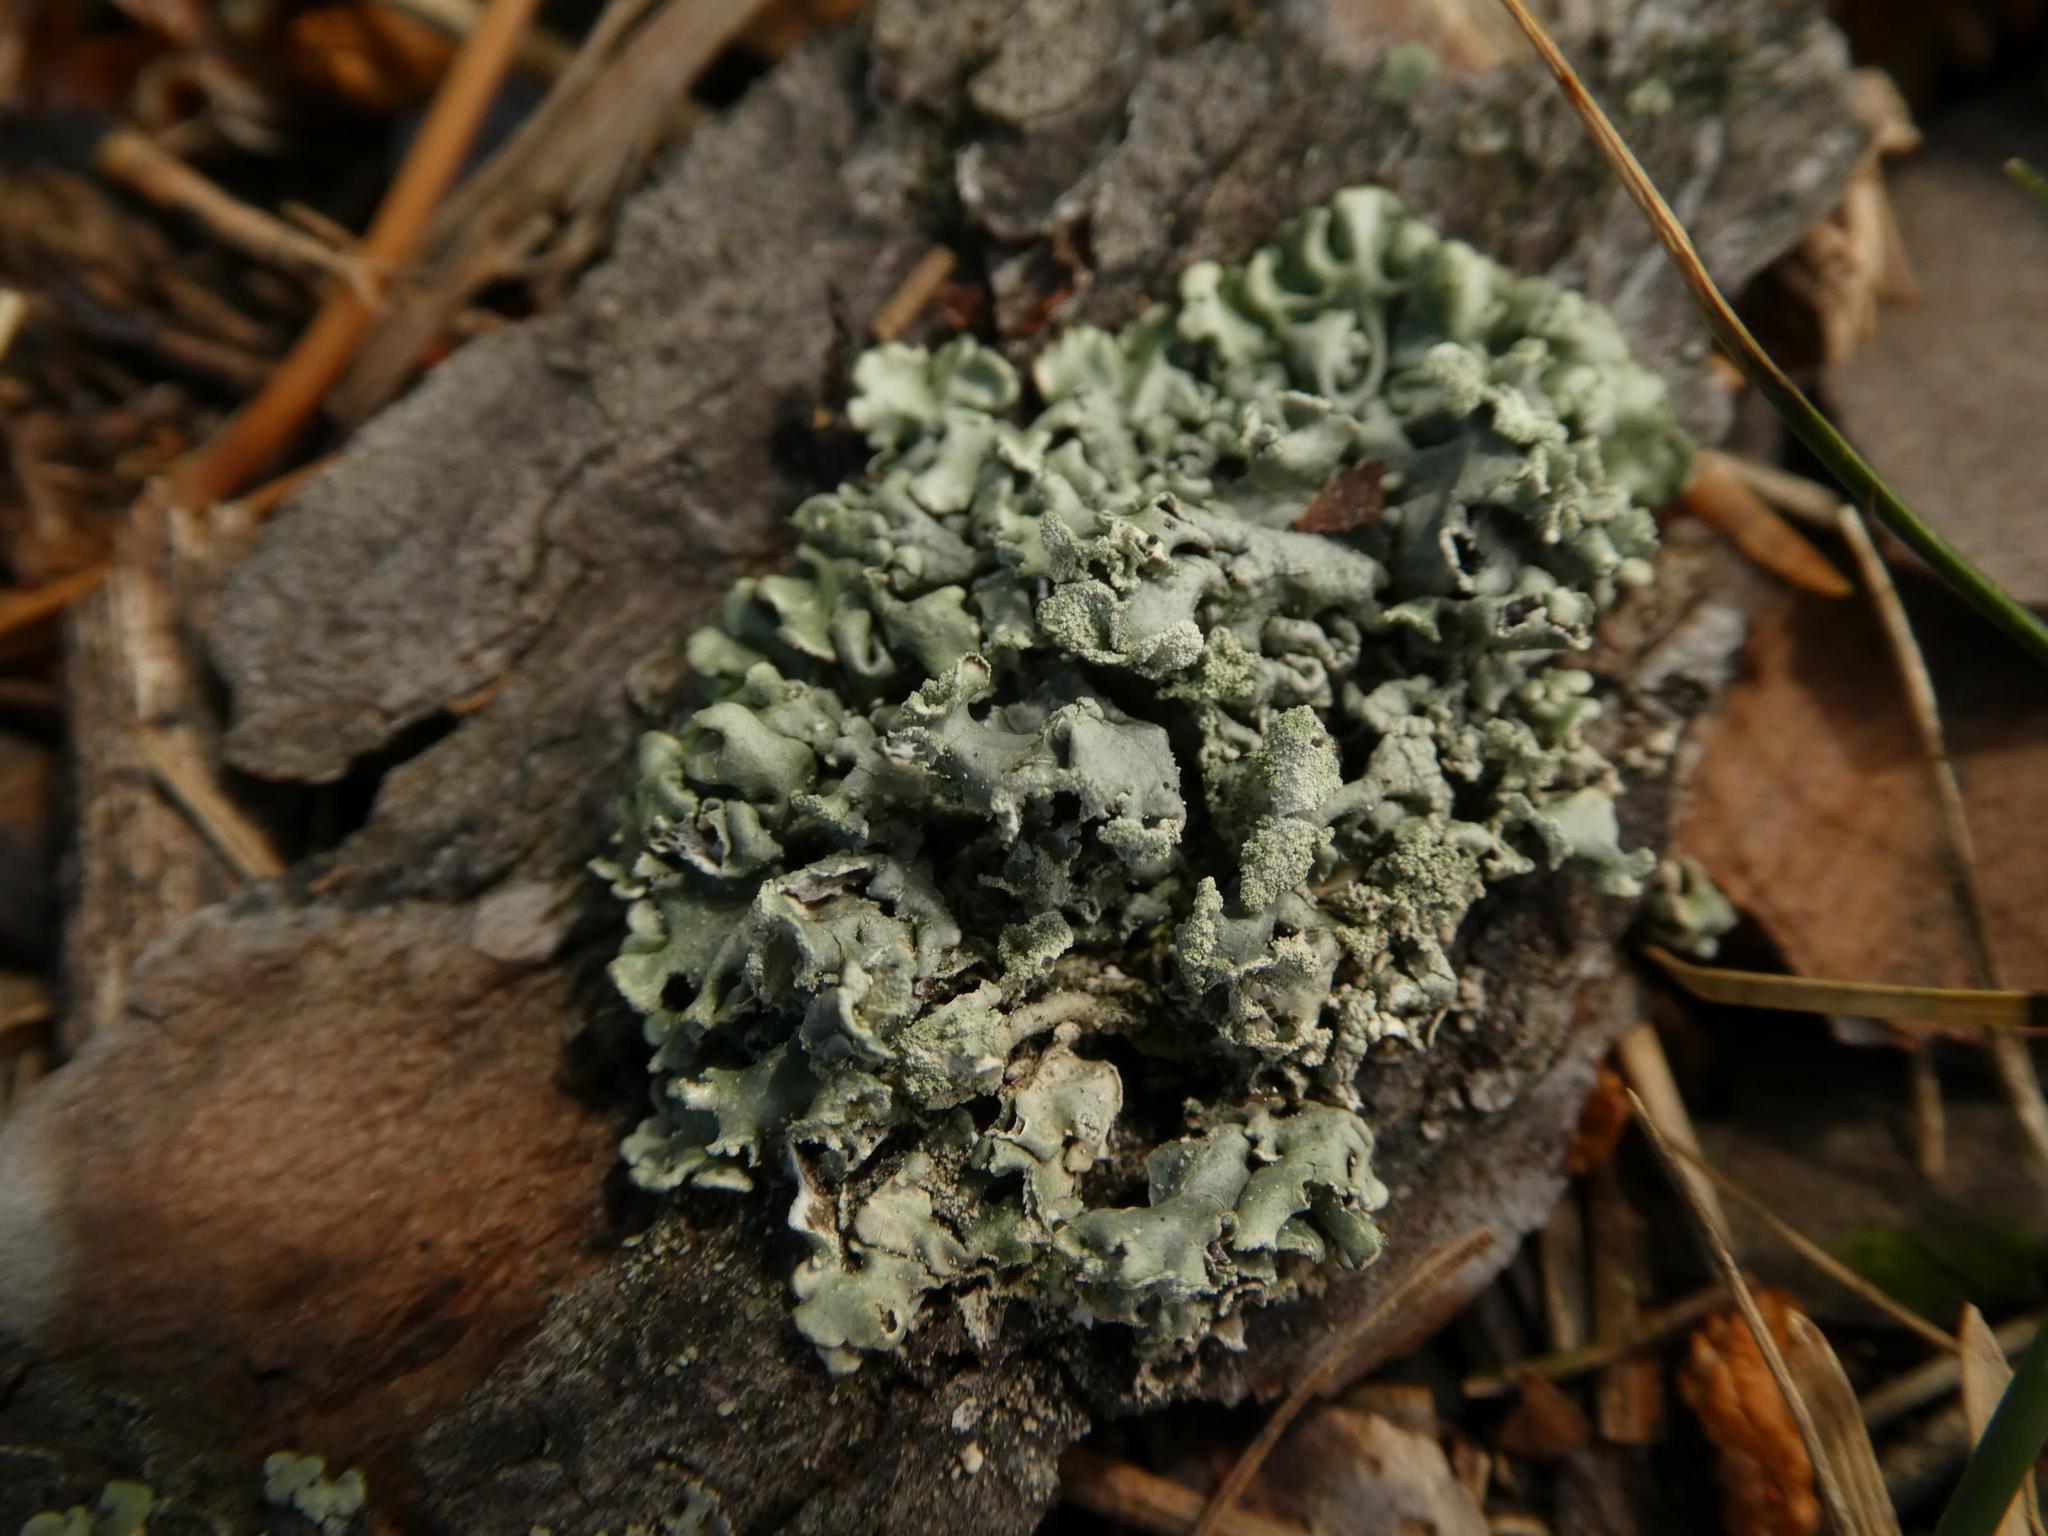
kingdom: Fungi
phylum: Ascomycota
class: Lecanoromycetes
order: Lecanorales
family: Parmeliaceae
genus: Hypogymnia
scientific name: Hypogymnia physodes
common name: Dark crottle
